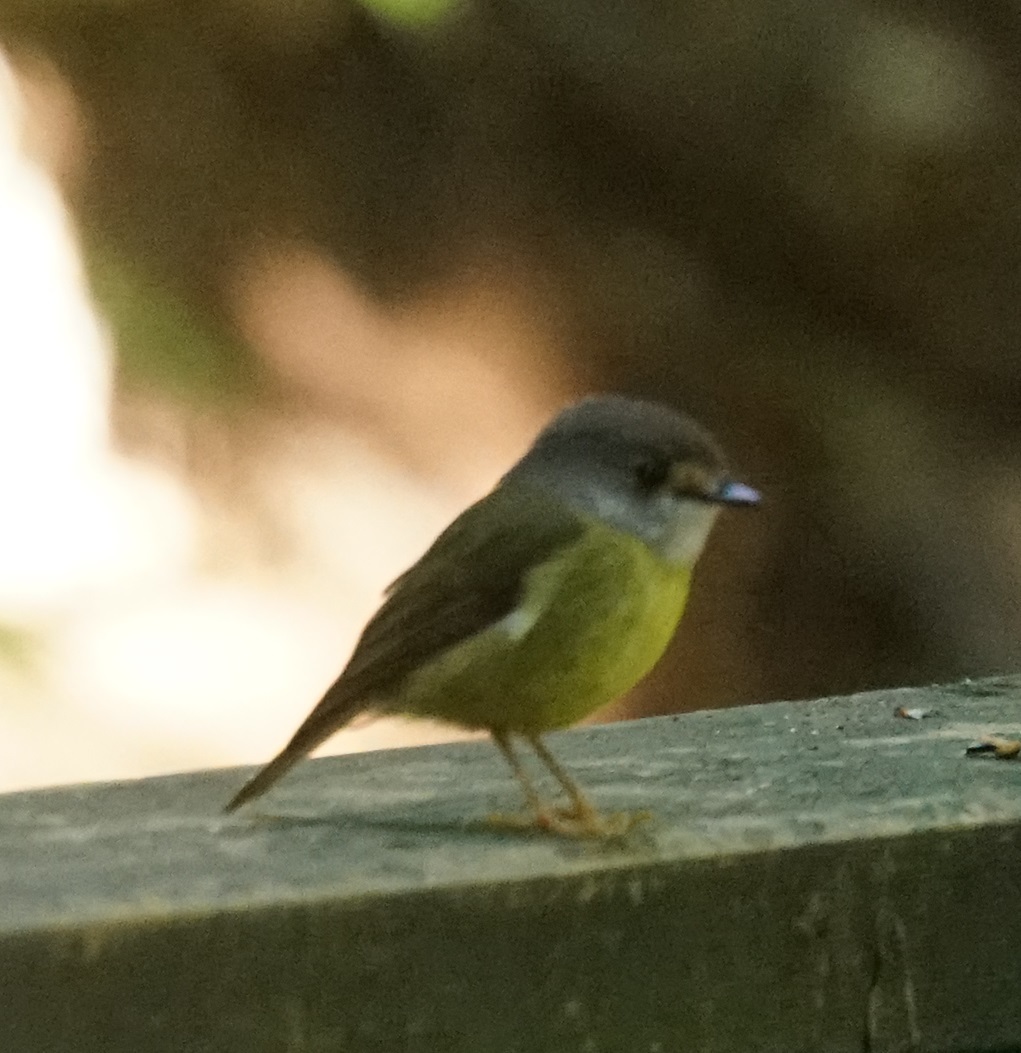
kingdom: Animalia
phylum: Chordata
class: Aves
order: Passeriformes
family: Petroicidae
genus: Eopsaltria
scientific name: Eopsaltria
